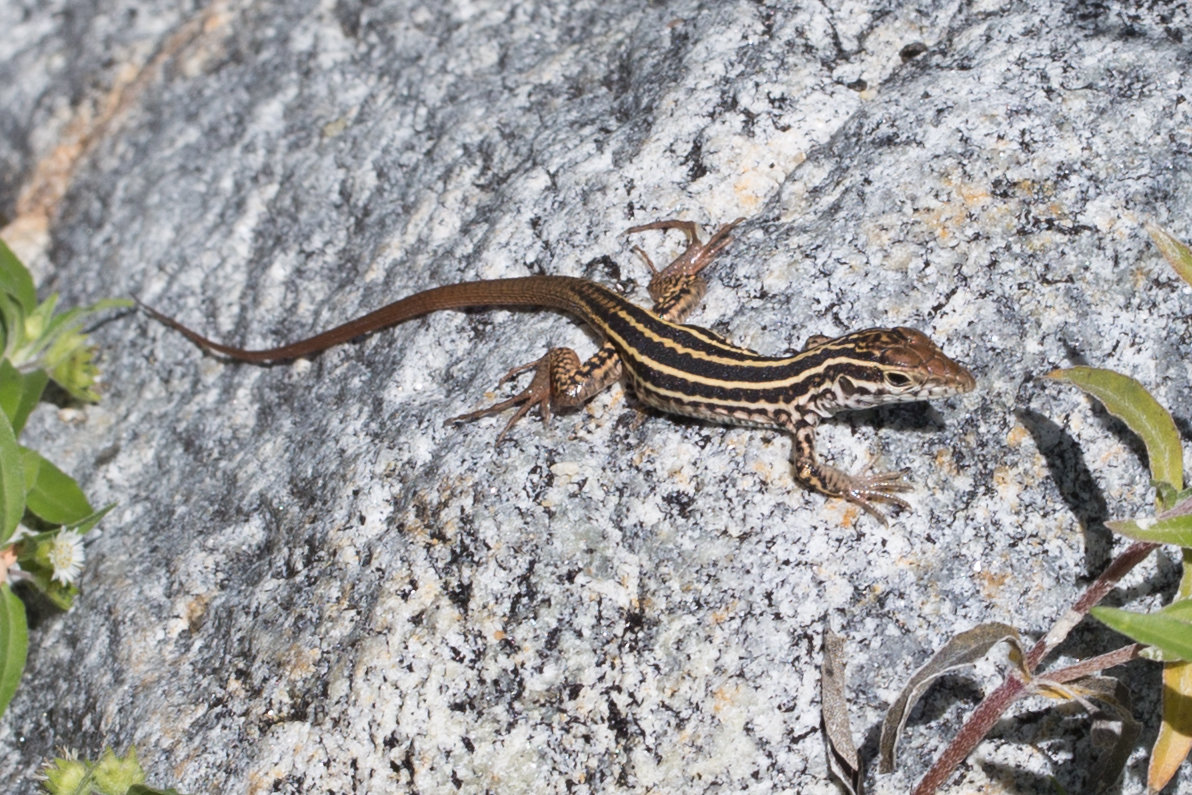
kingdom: Animalia
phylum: Chordata
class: Squamata
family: Teiidae
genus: Aspidoscelis
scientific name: Aspidoscelis maximus
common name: Cape region whiptail
